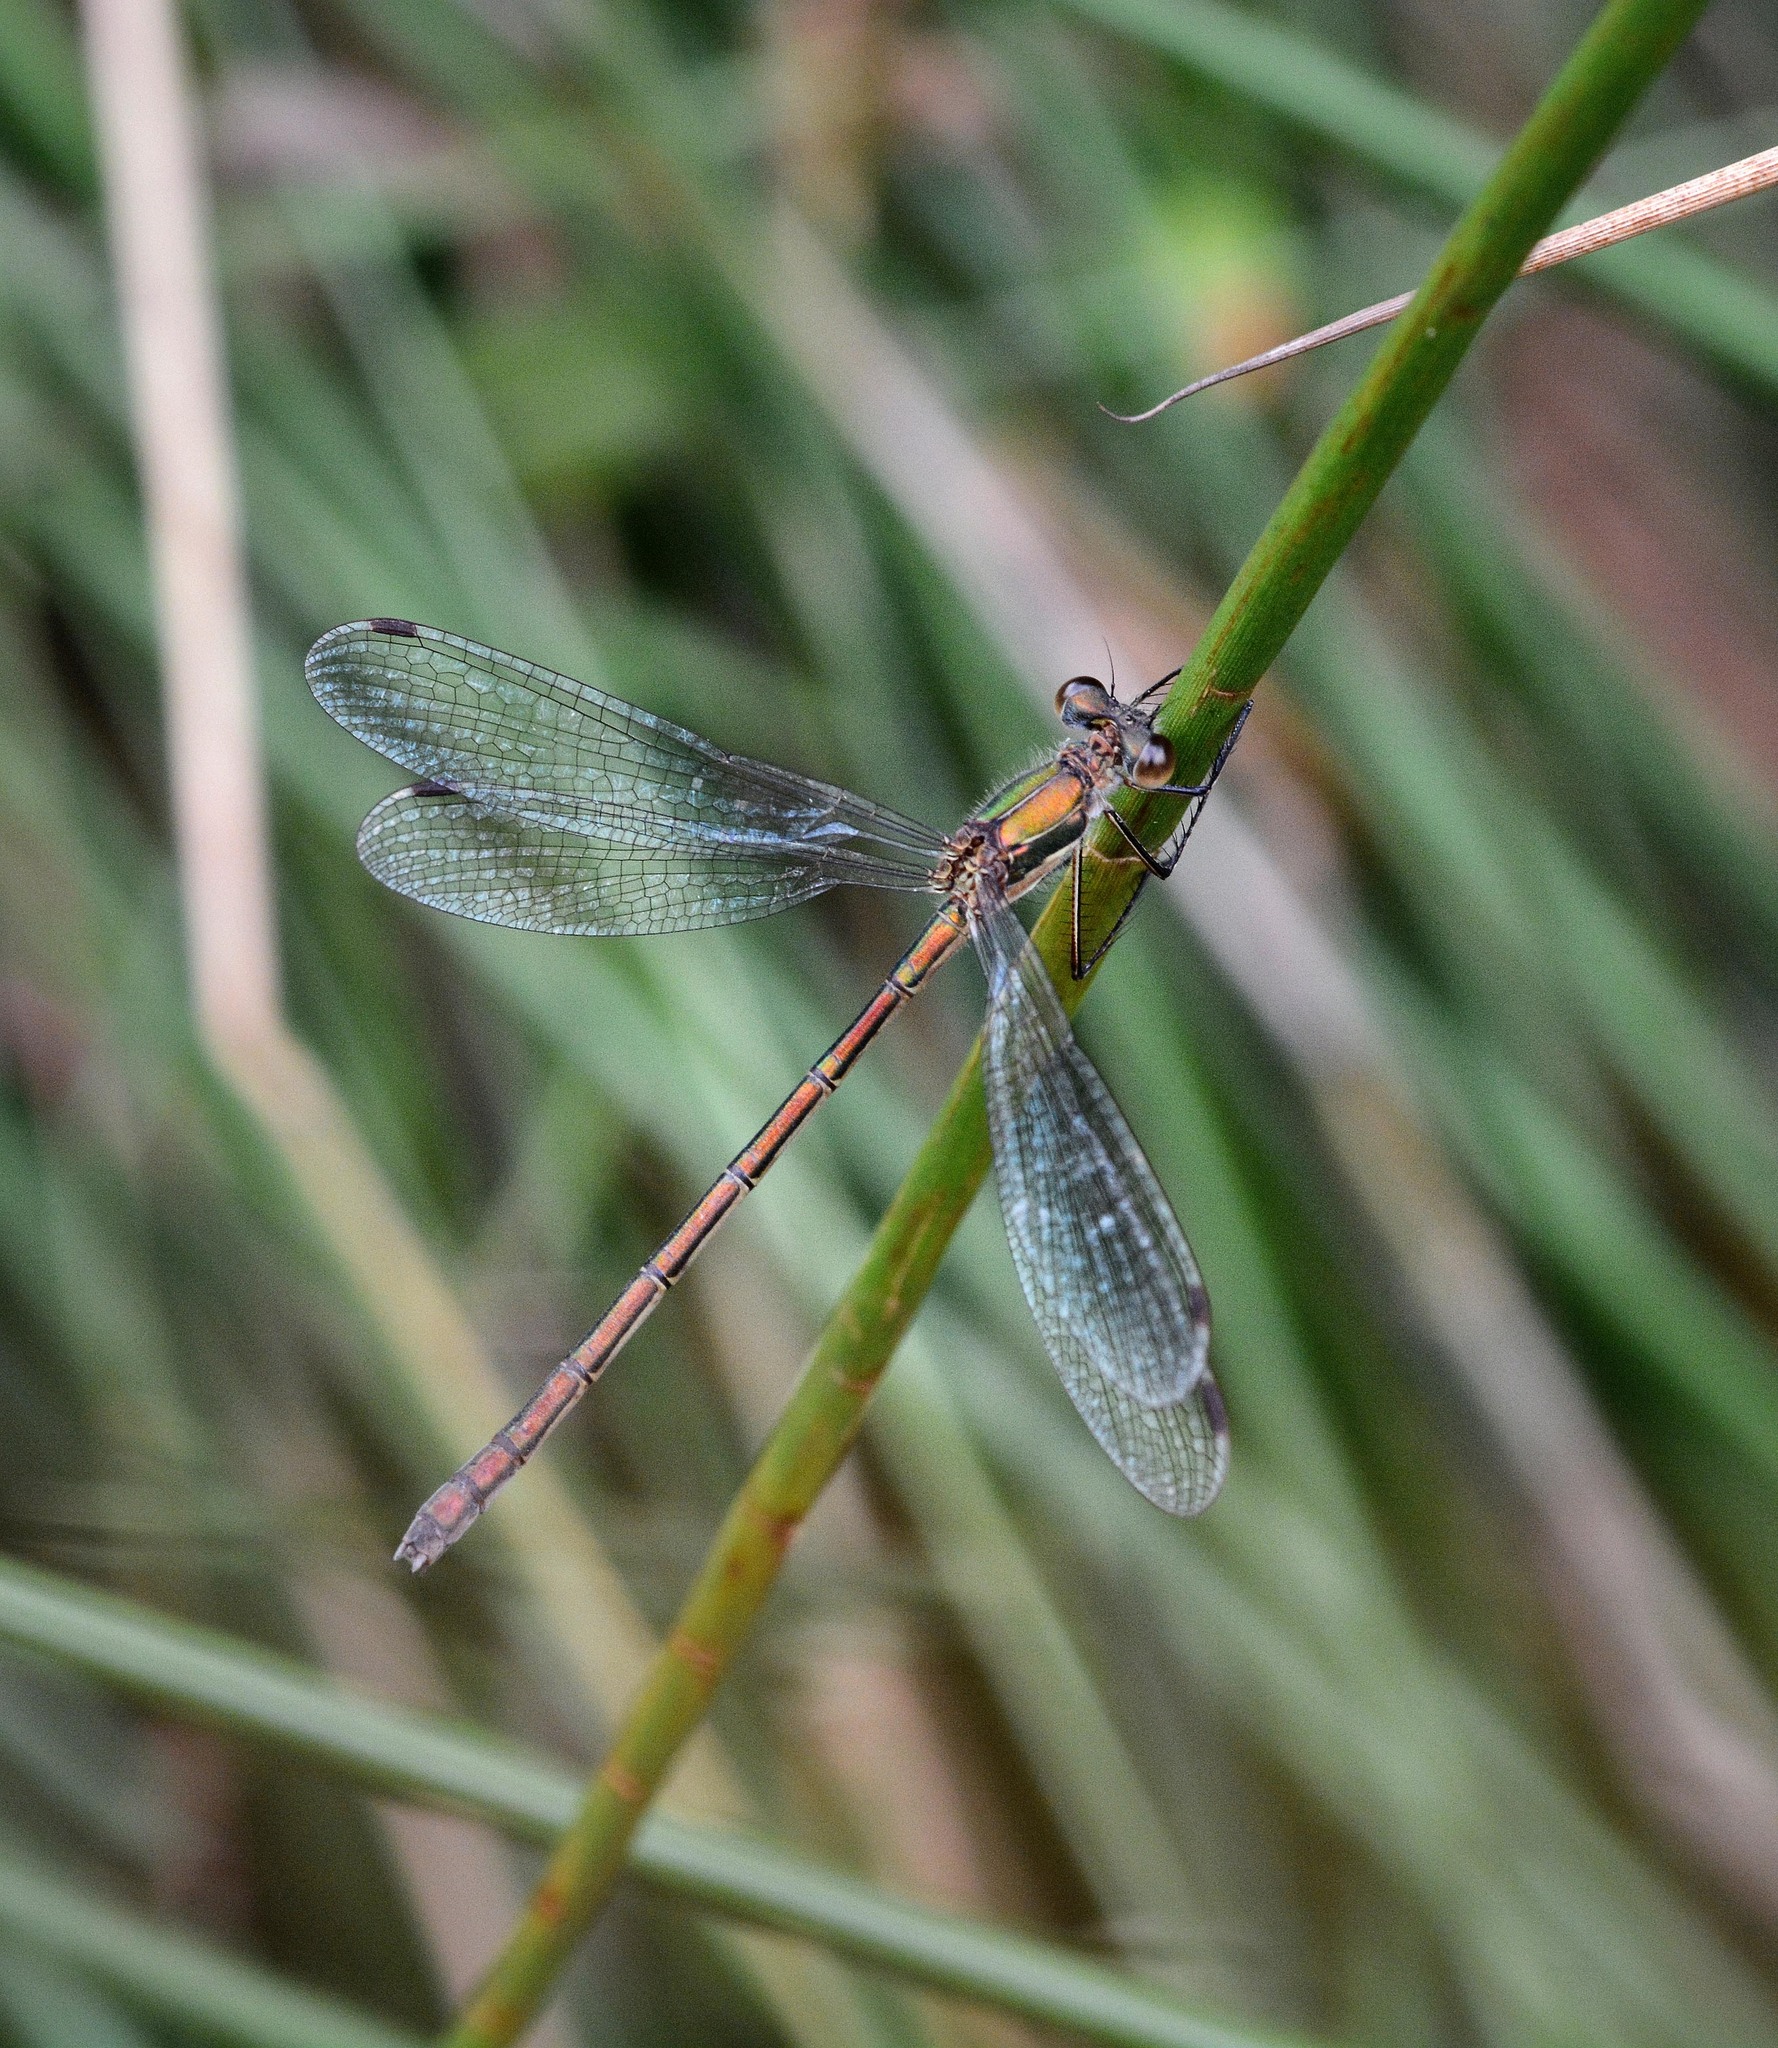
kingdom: Animalia
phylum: Arthropoda
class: Insecta
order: Odonata
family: Lestidae
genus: Lestes
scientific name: Lestes sponsa
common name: Common spreadwing
